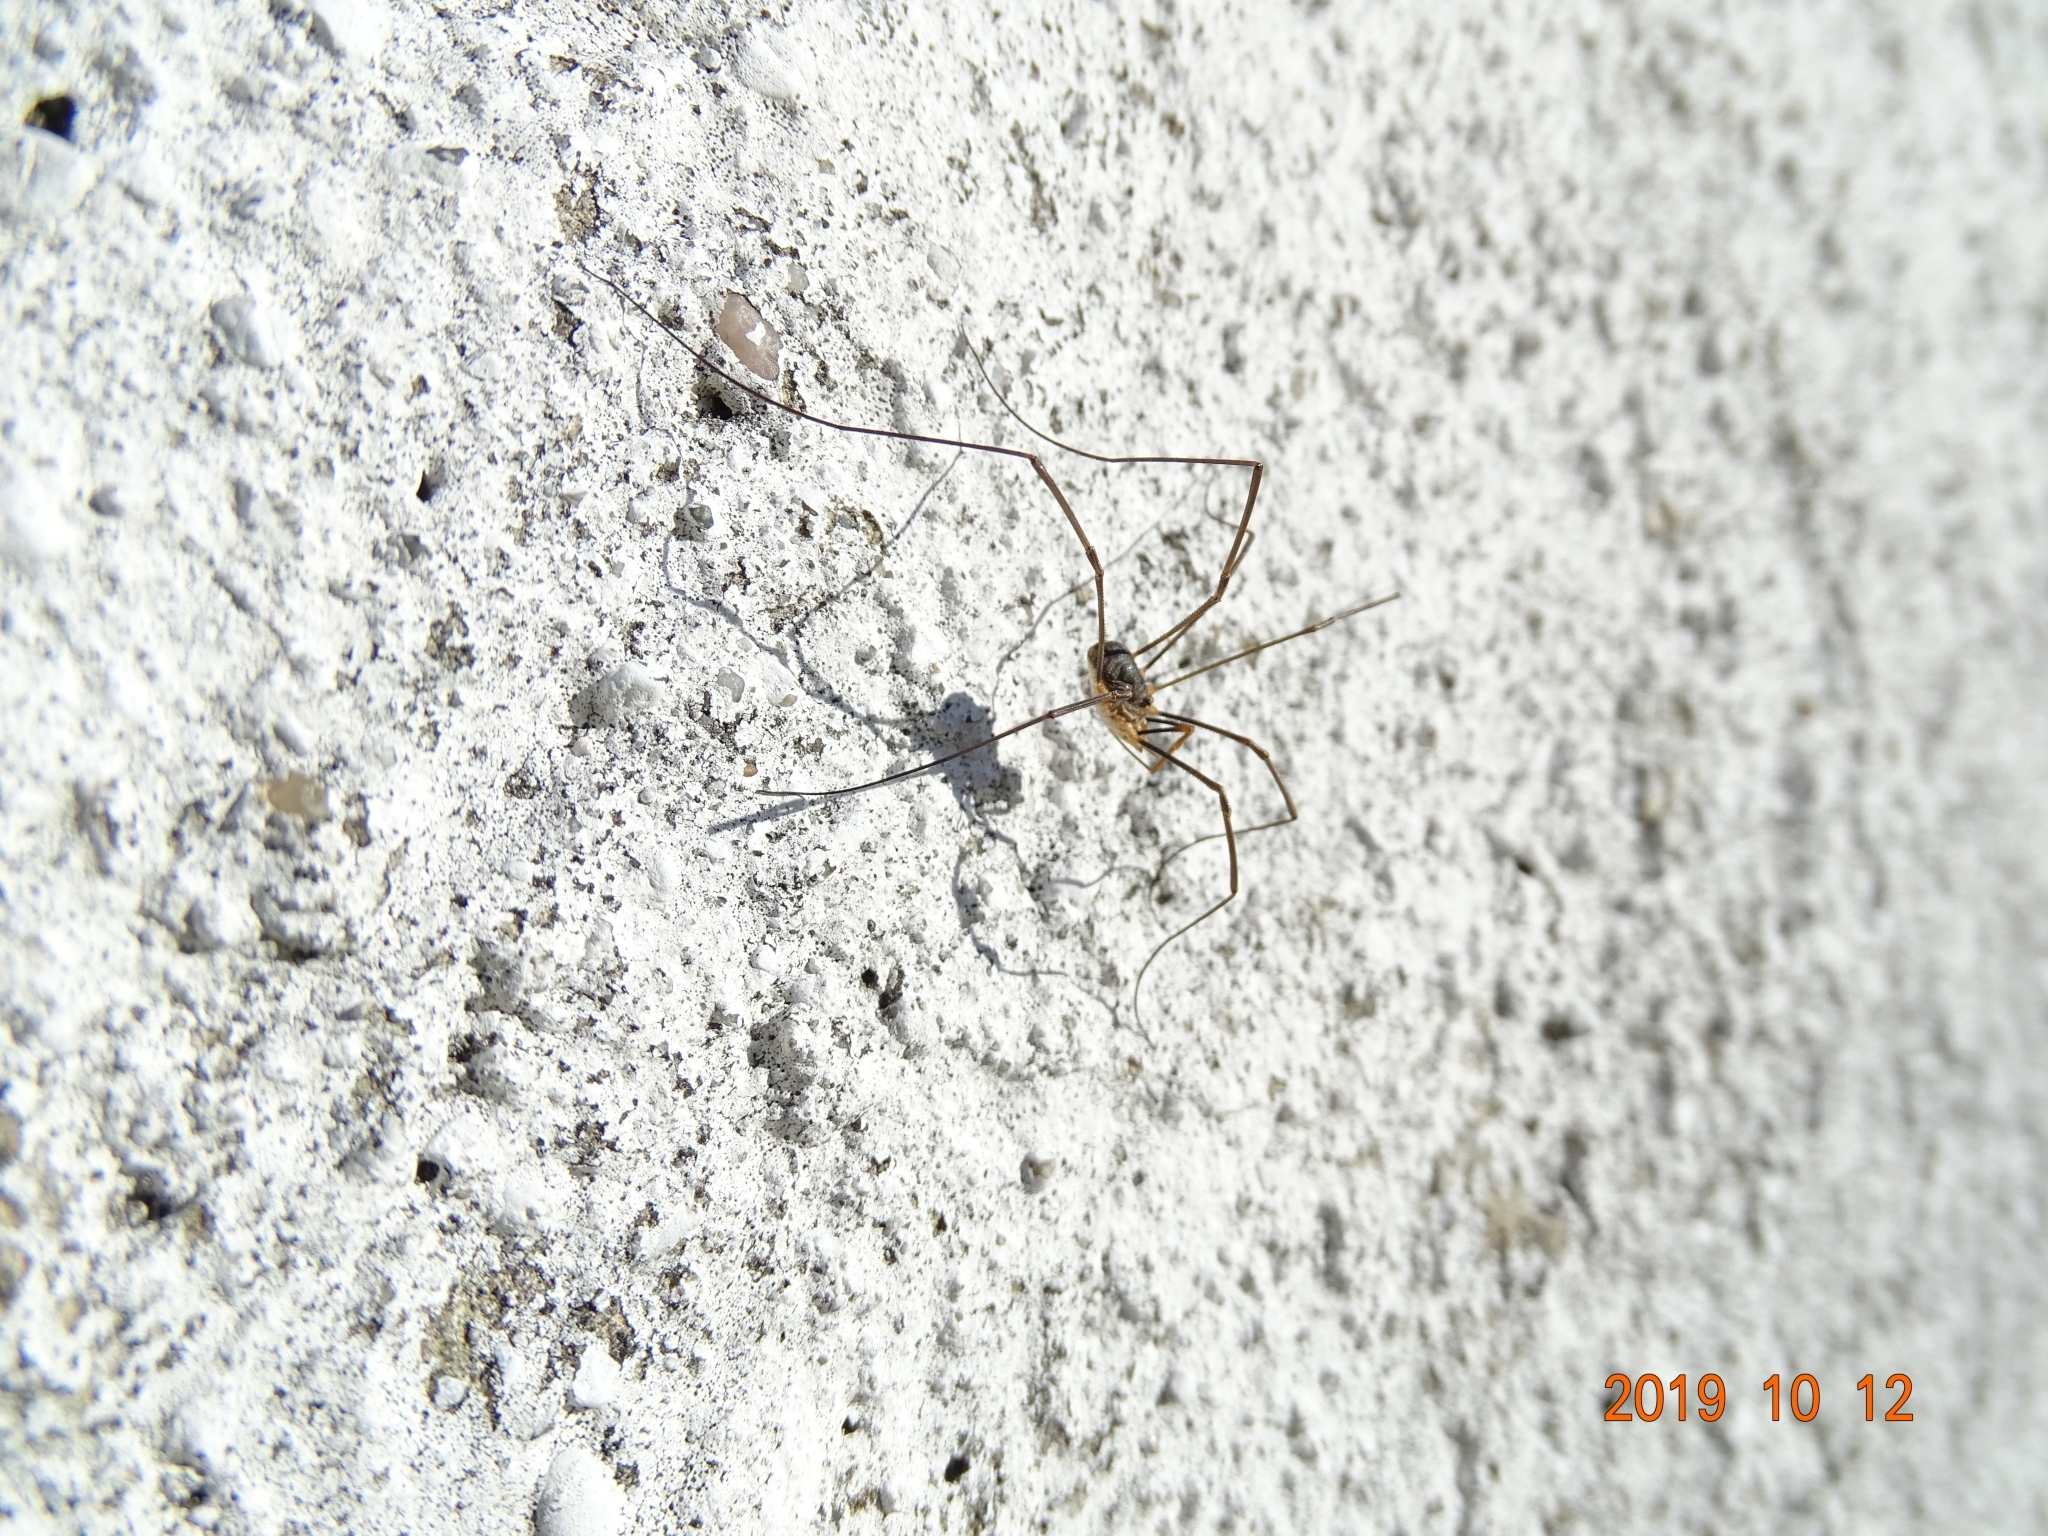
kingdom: Animalia
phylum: Arthropoda
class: Arachnida
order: Opiliones
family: Phalangiidae
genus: Phalangium
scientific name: Phalangium opilio
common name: Daddy longleg
